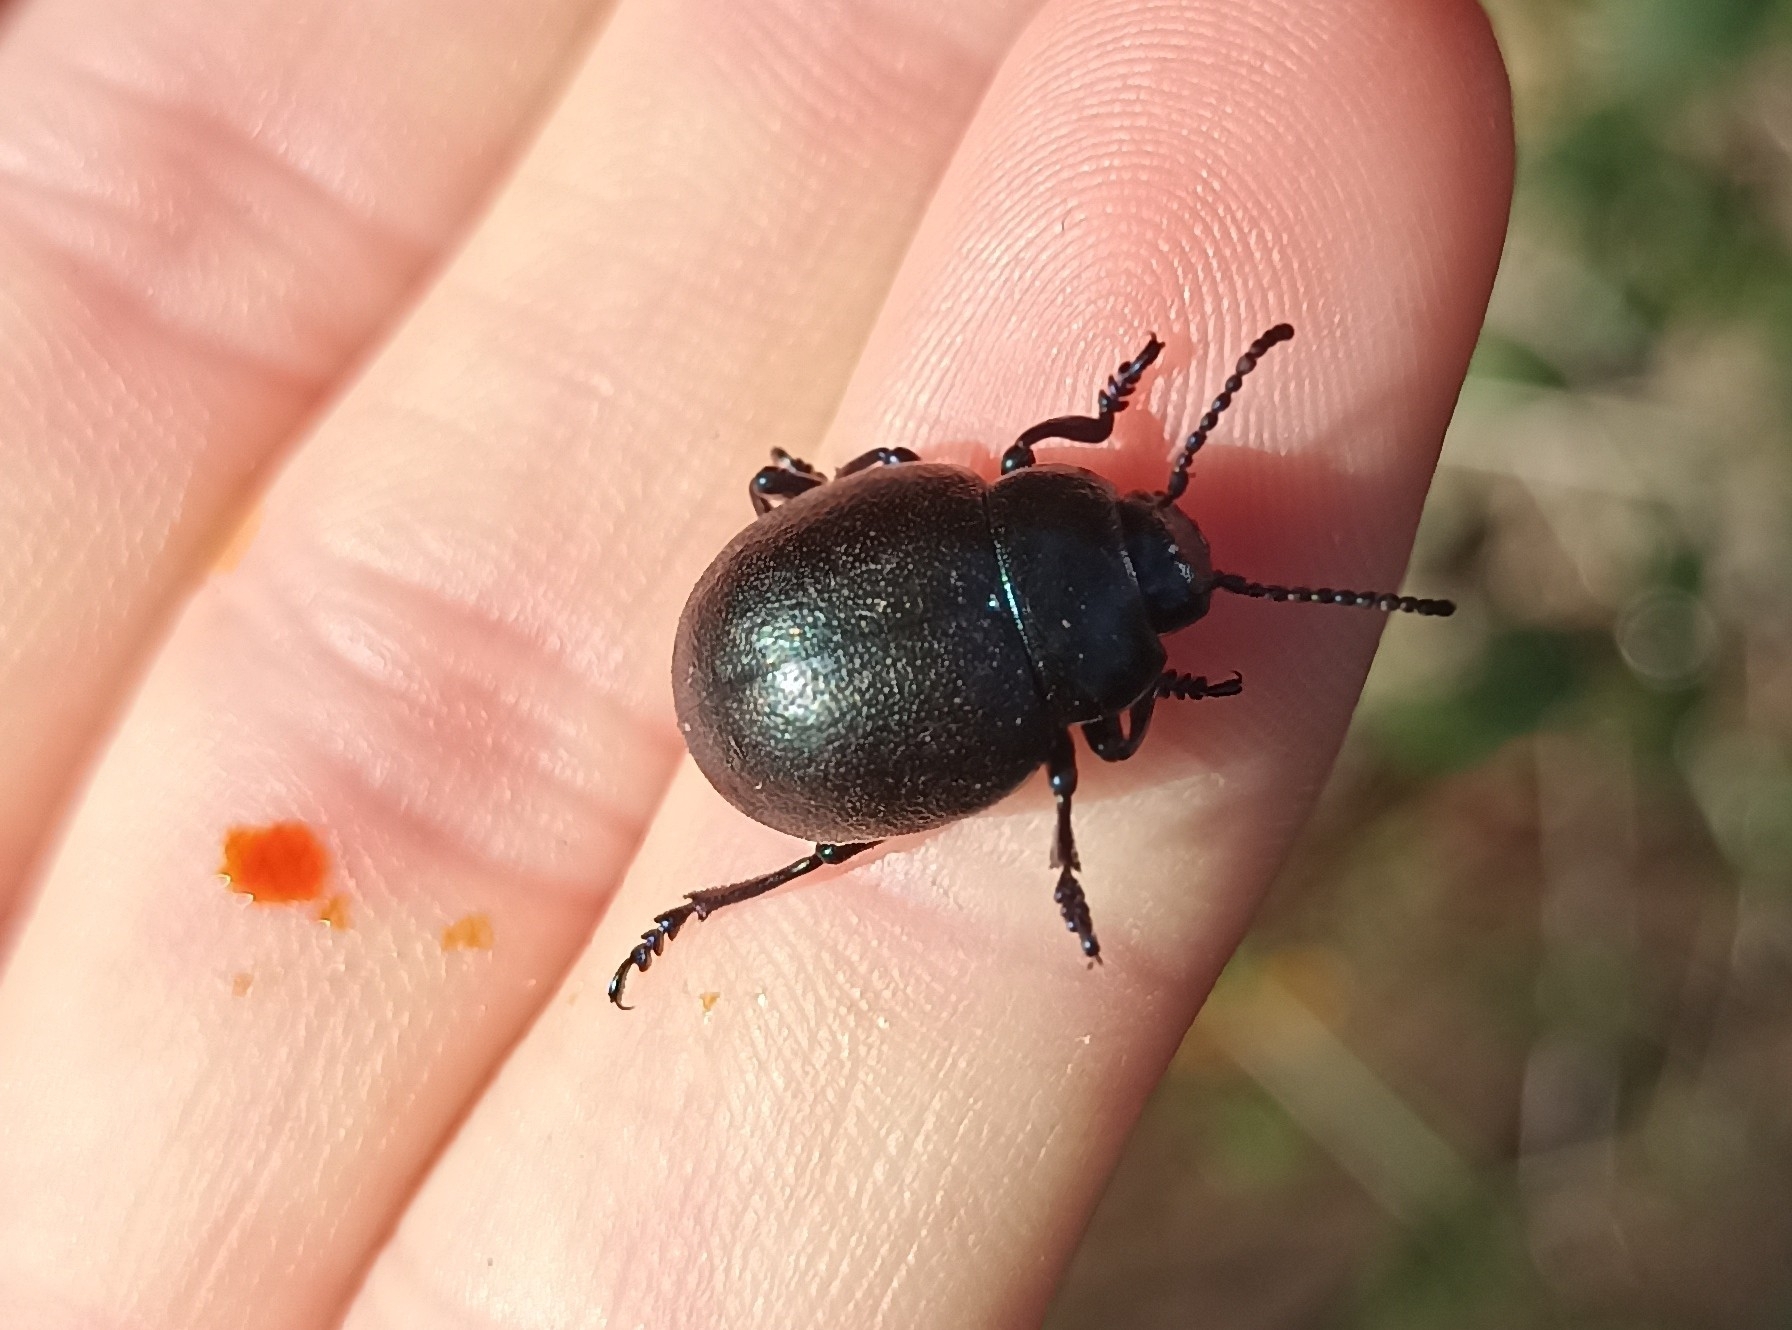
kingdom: Animalia
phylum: Arthropoda
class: Insecta
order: Coleoptera
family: Chrysomelidae
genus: Timarcha
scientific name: Timarcha goettingensis
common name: Small bloody-nosed beetle
